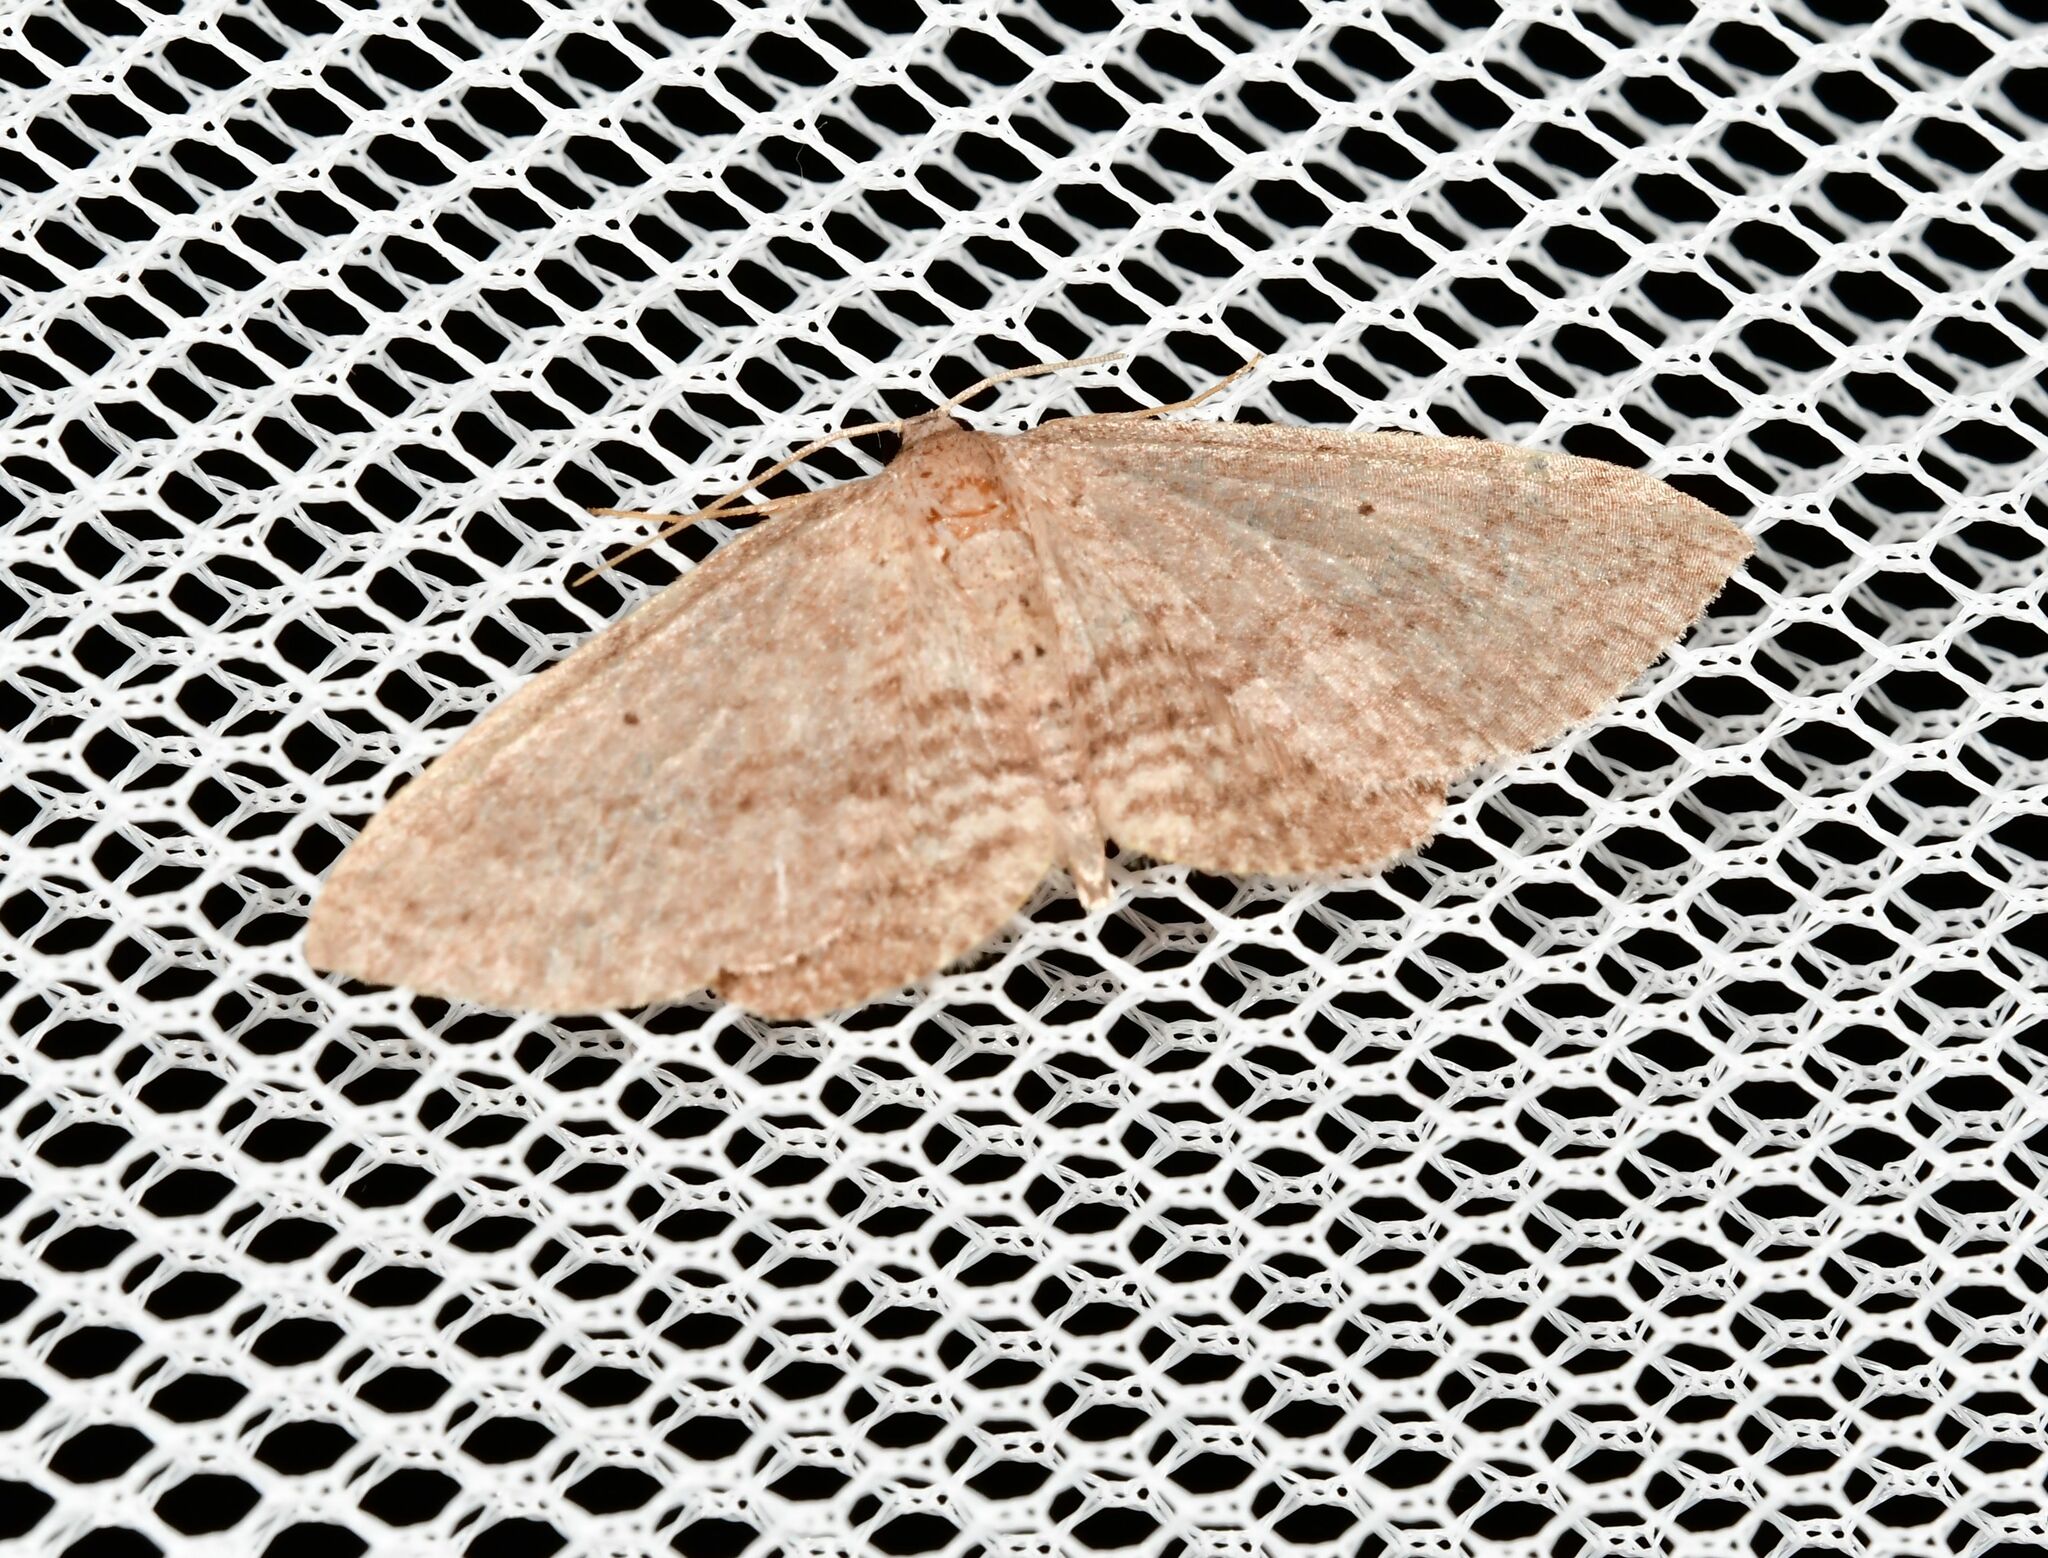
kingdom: Animalia
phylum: Arthropoda
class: Insecta
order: Lepidoptera
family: Geometridae
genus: Poecilasthena
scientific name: Poecilasthena schistaria
